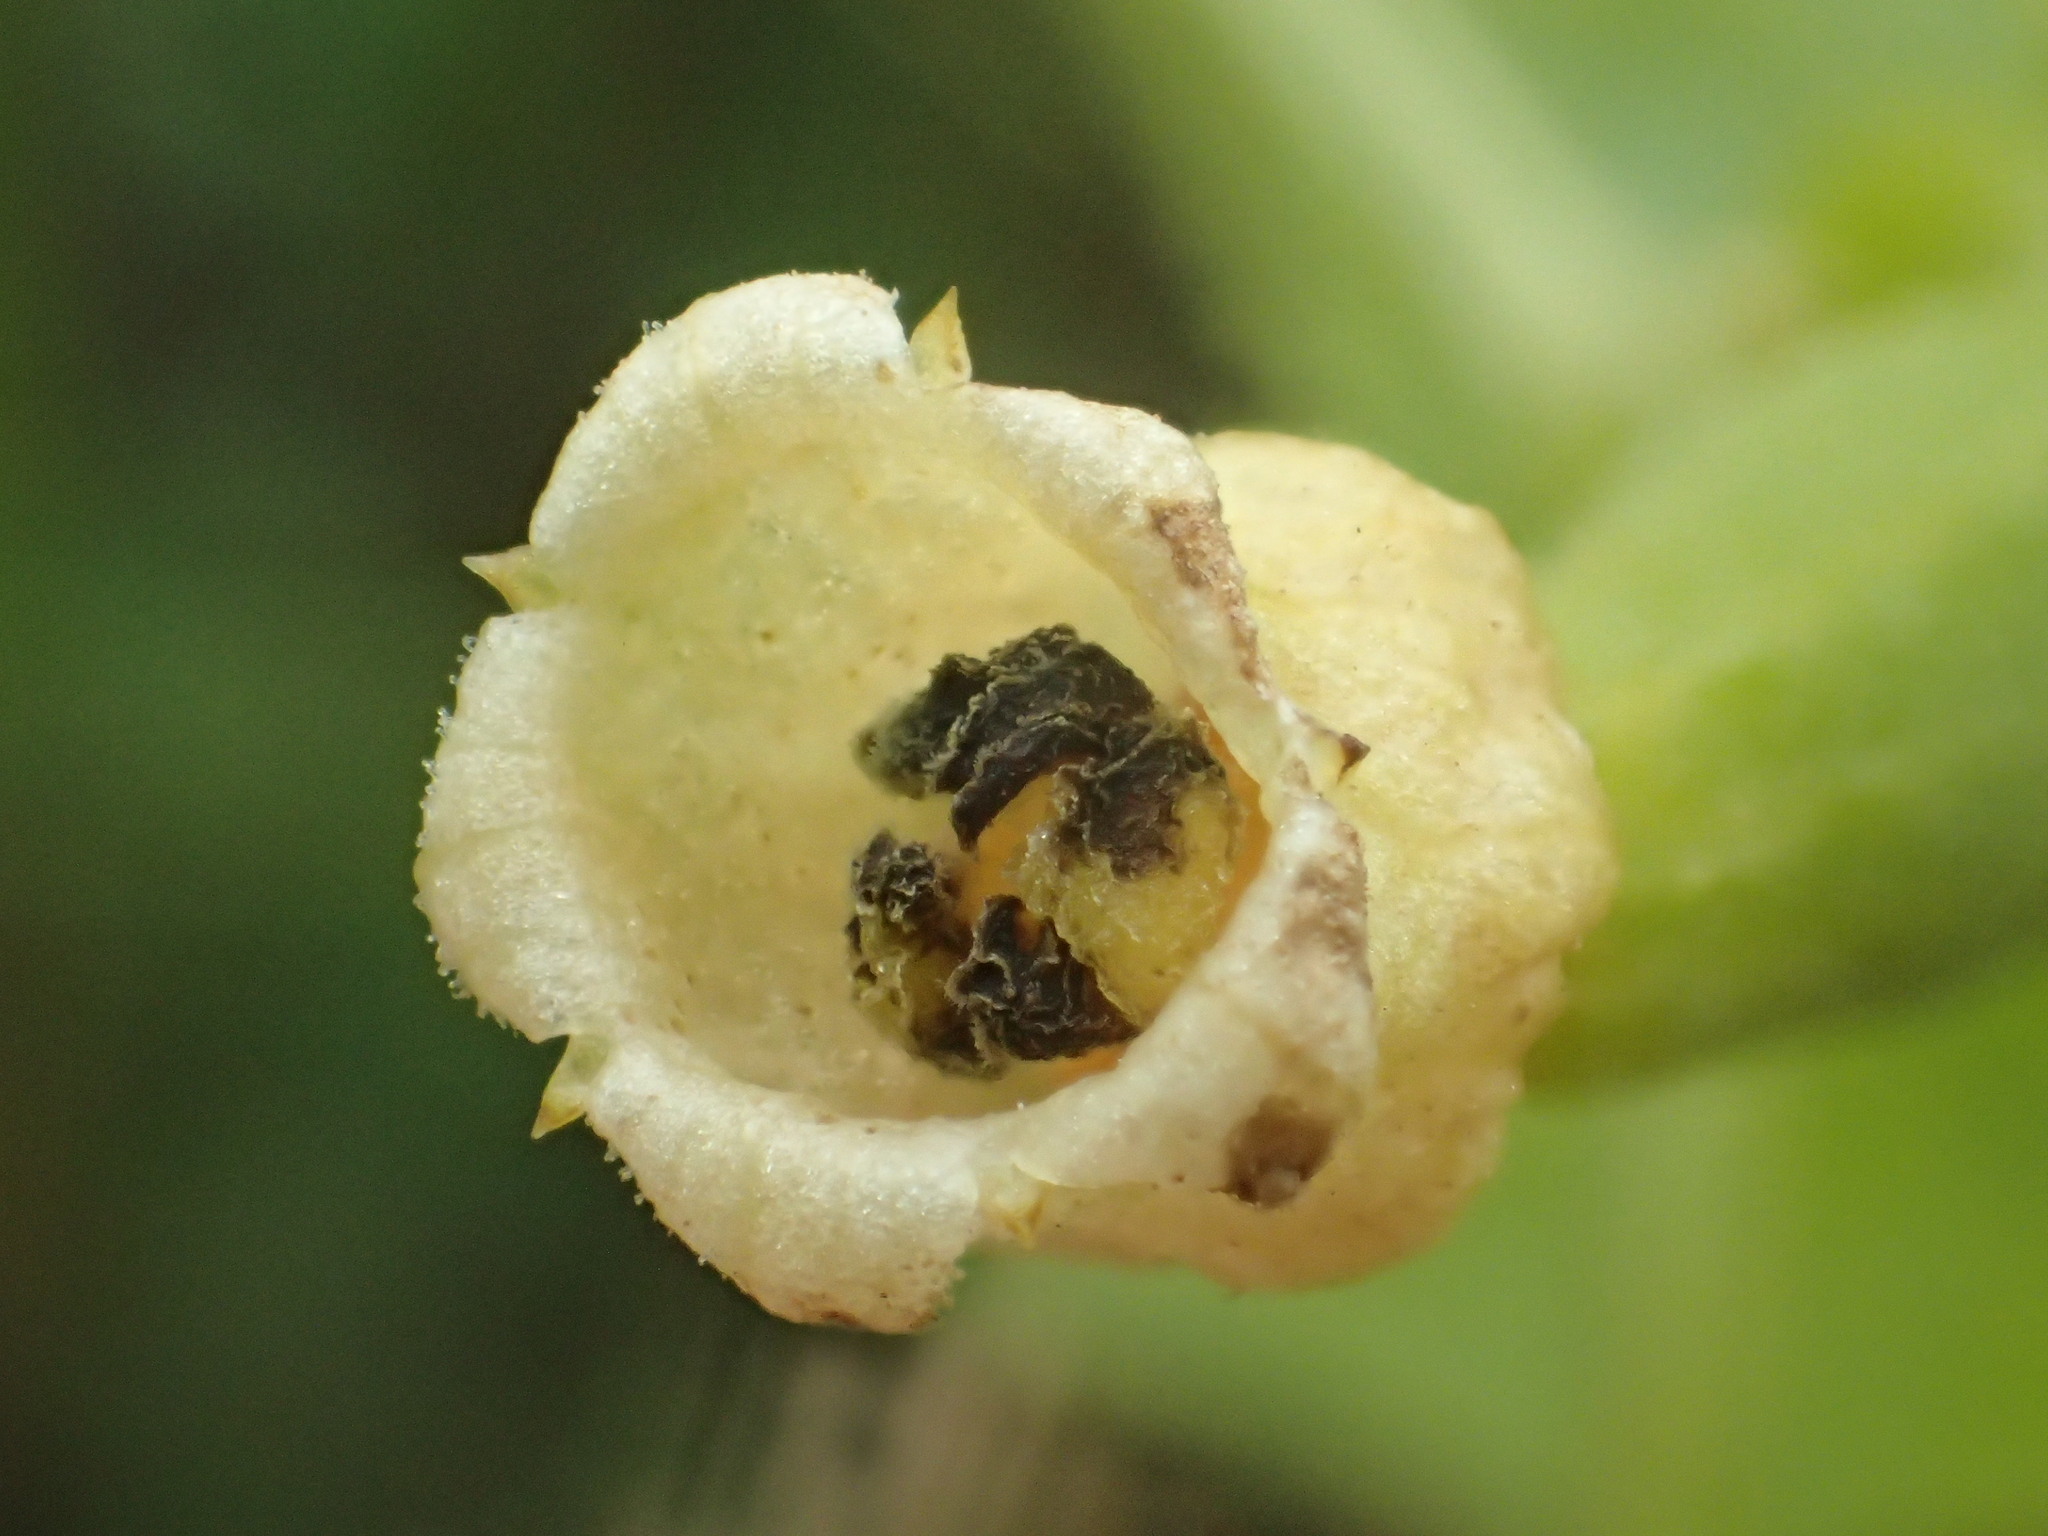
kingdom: Plantae
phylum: Tracheophyta
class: Magnoliopsida
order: Cucurbitales
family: Cucurbitaceae
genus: Solena
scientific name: Solena amplexicaulis
